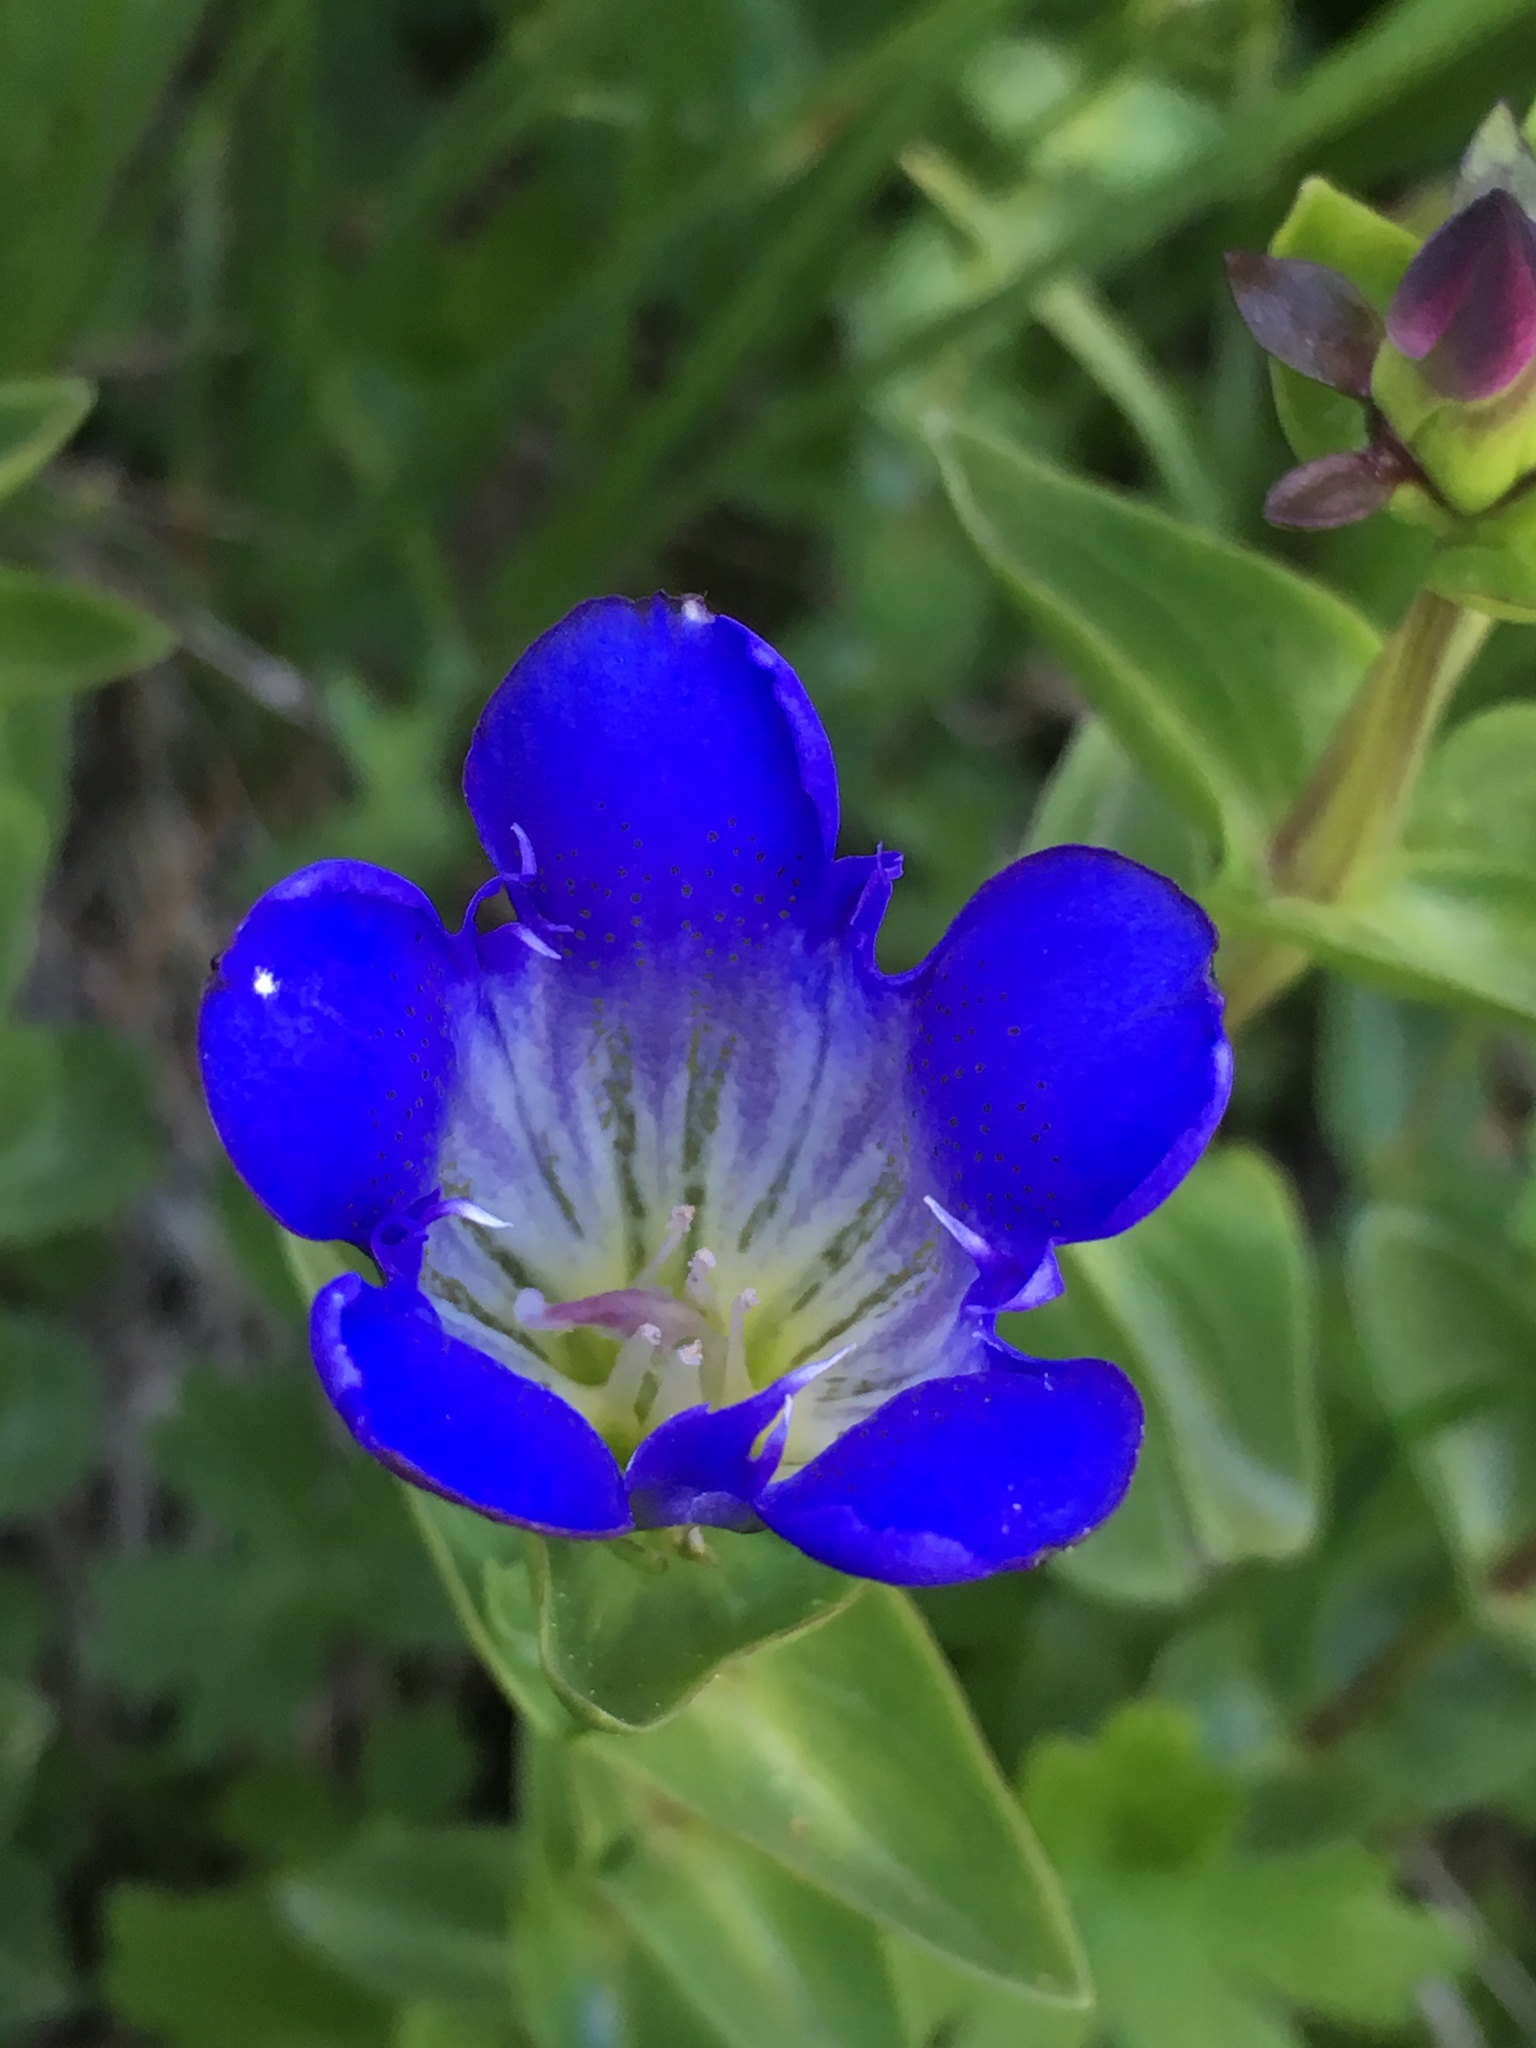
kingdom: Plantae
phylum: Tracheophyta
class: Magnoliopsida
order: Gentianales
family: Gentianaceae
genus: Gentiana
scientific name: Gentiana calycosa
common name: Rainier pleated gentian
